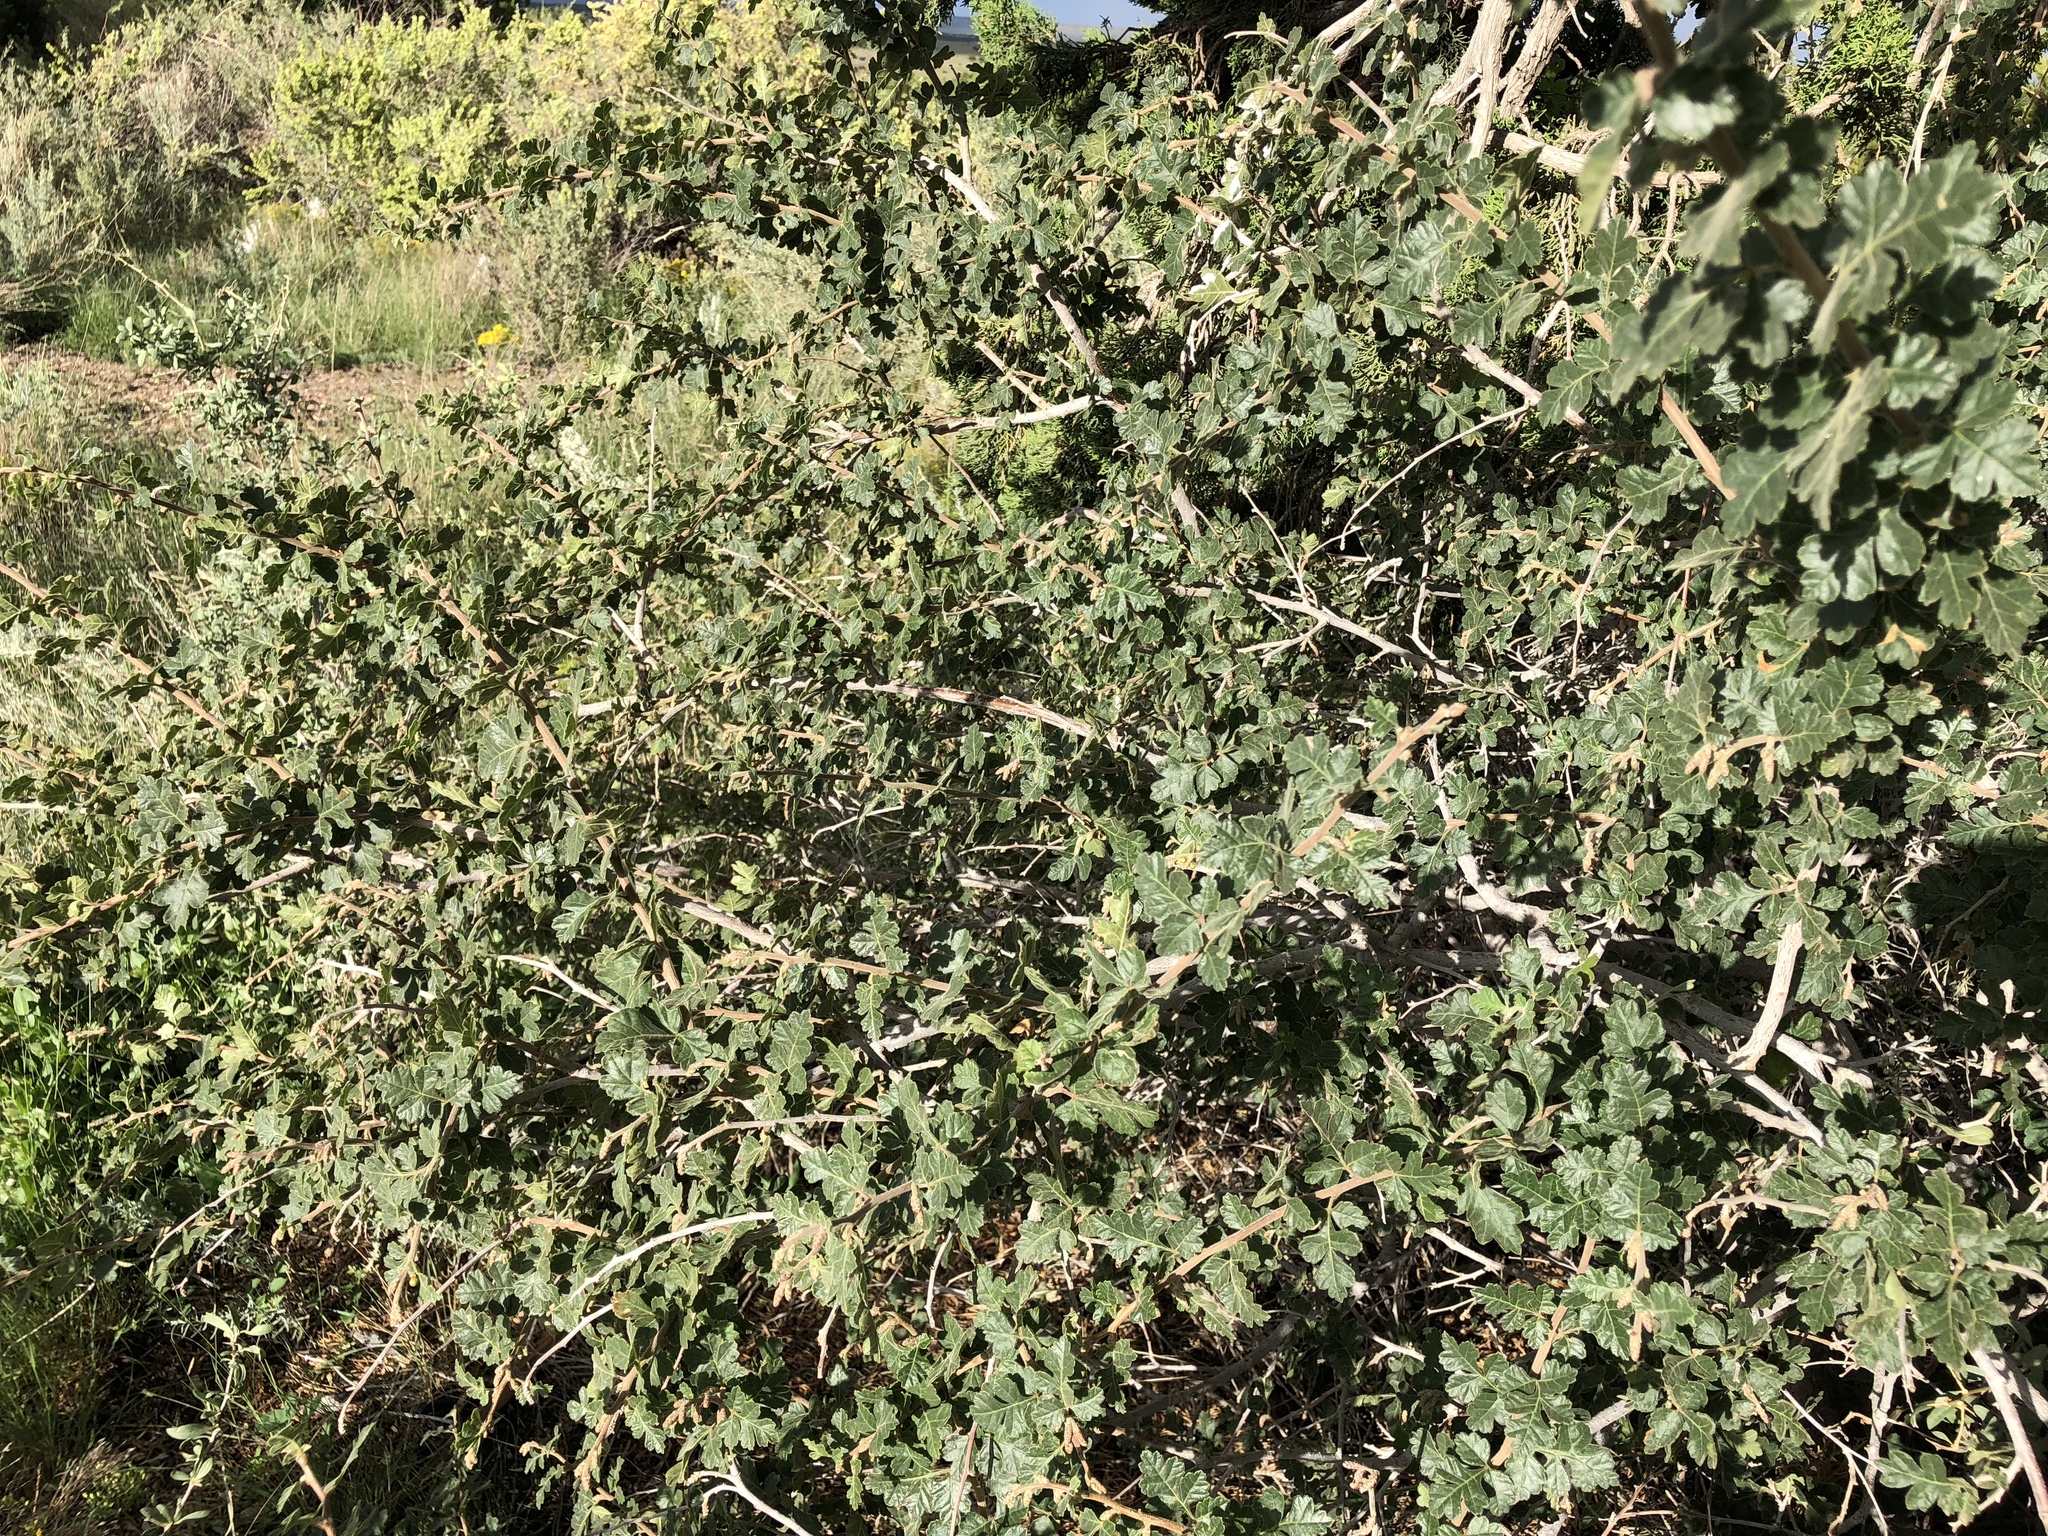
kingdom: Plantae
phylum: Tracheophyta
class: Magnoliopsida
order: Sapindales
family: Anacardiaceae
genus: Rhus
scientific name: Rhus aromatica
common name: Aromatic sumac
